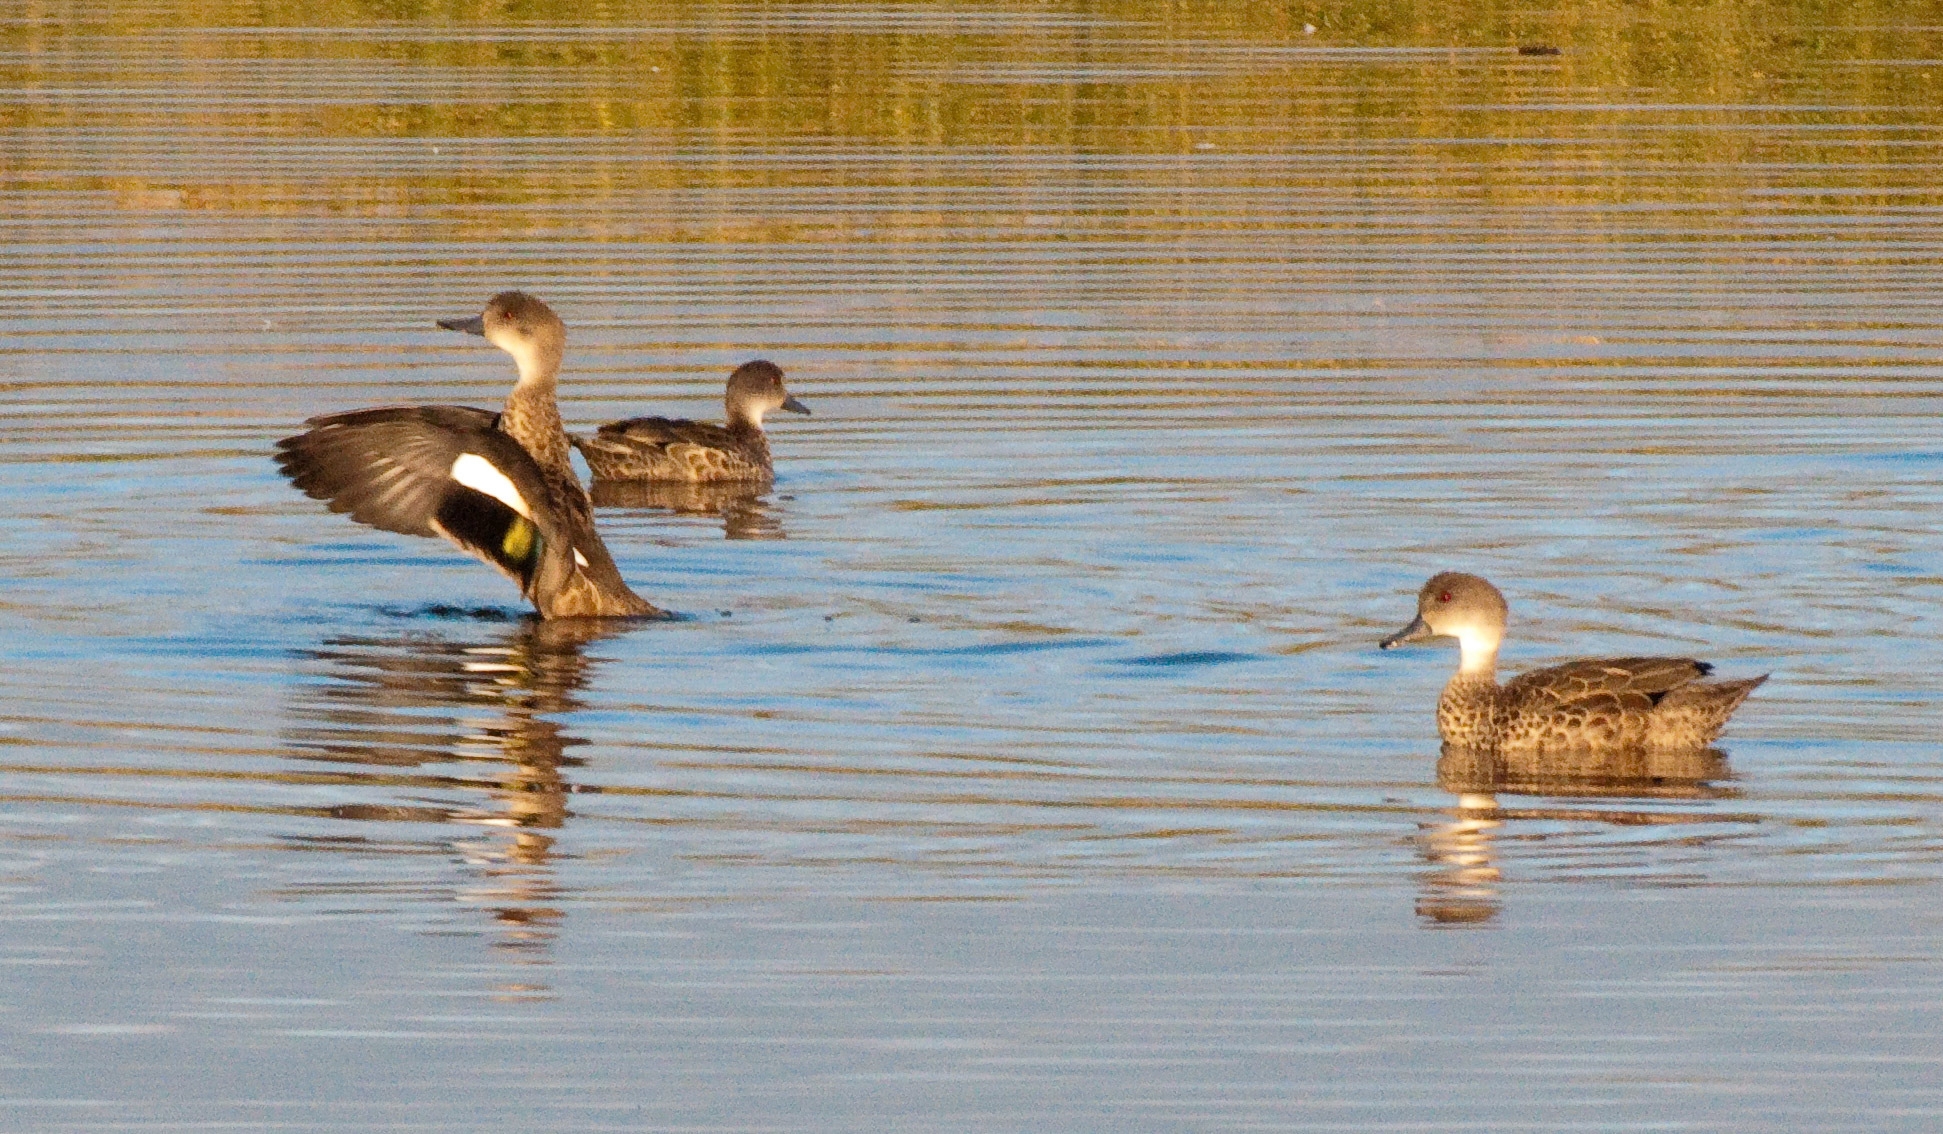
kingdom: Animalia
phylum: Chordata
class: Aves
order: Anseriformes
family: Anatidae
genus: Anas
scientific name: Anas gracilis
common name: Grey teal
